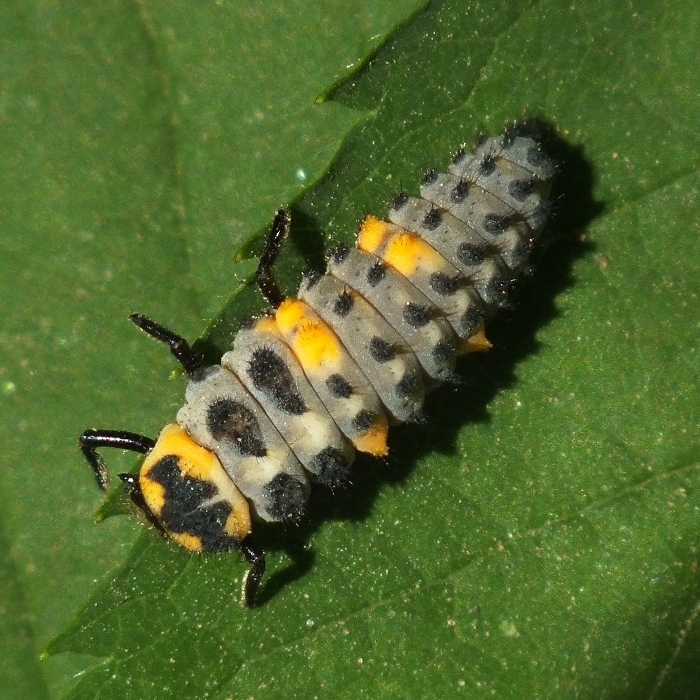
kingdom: Animalia
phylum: Arthropoda
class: Insecta
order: Coleoptera
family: Coccinellidae
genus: Coccinella
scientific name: Coccinella septempunctata
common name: Sevenspotted lady beetle
